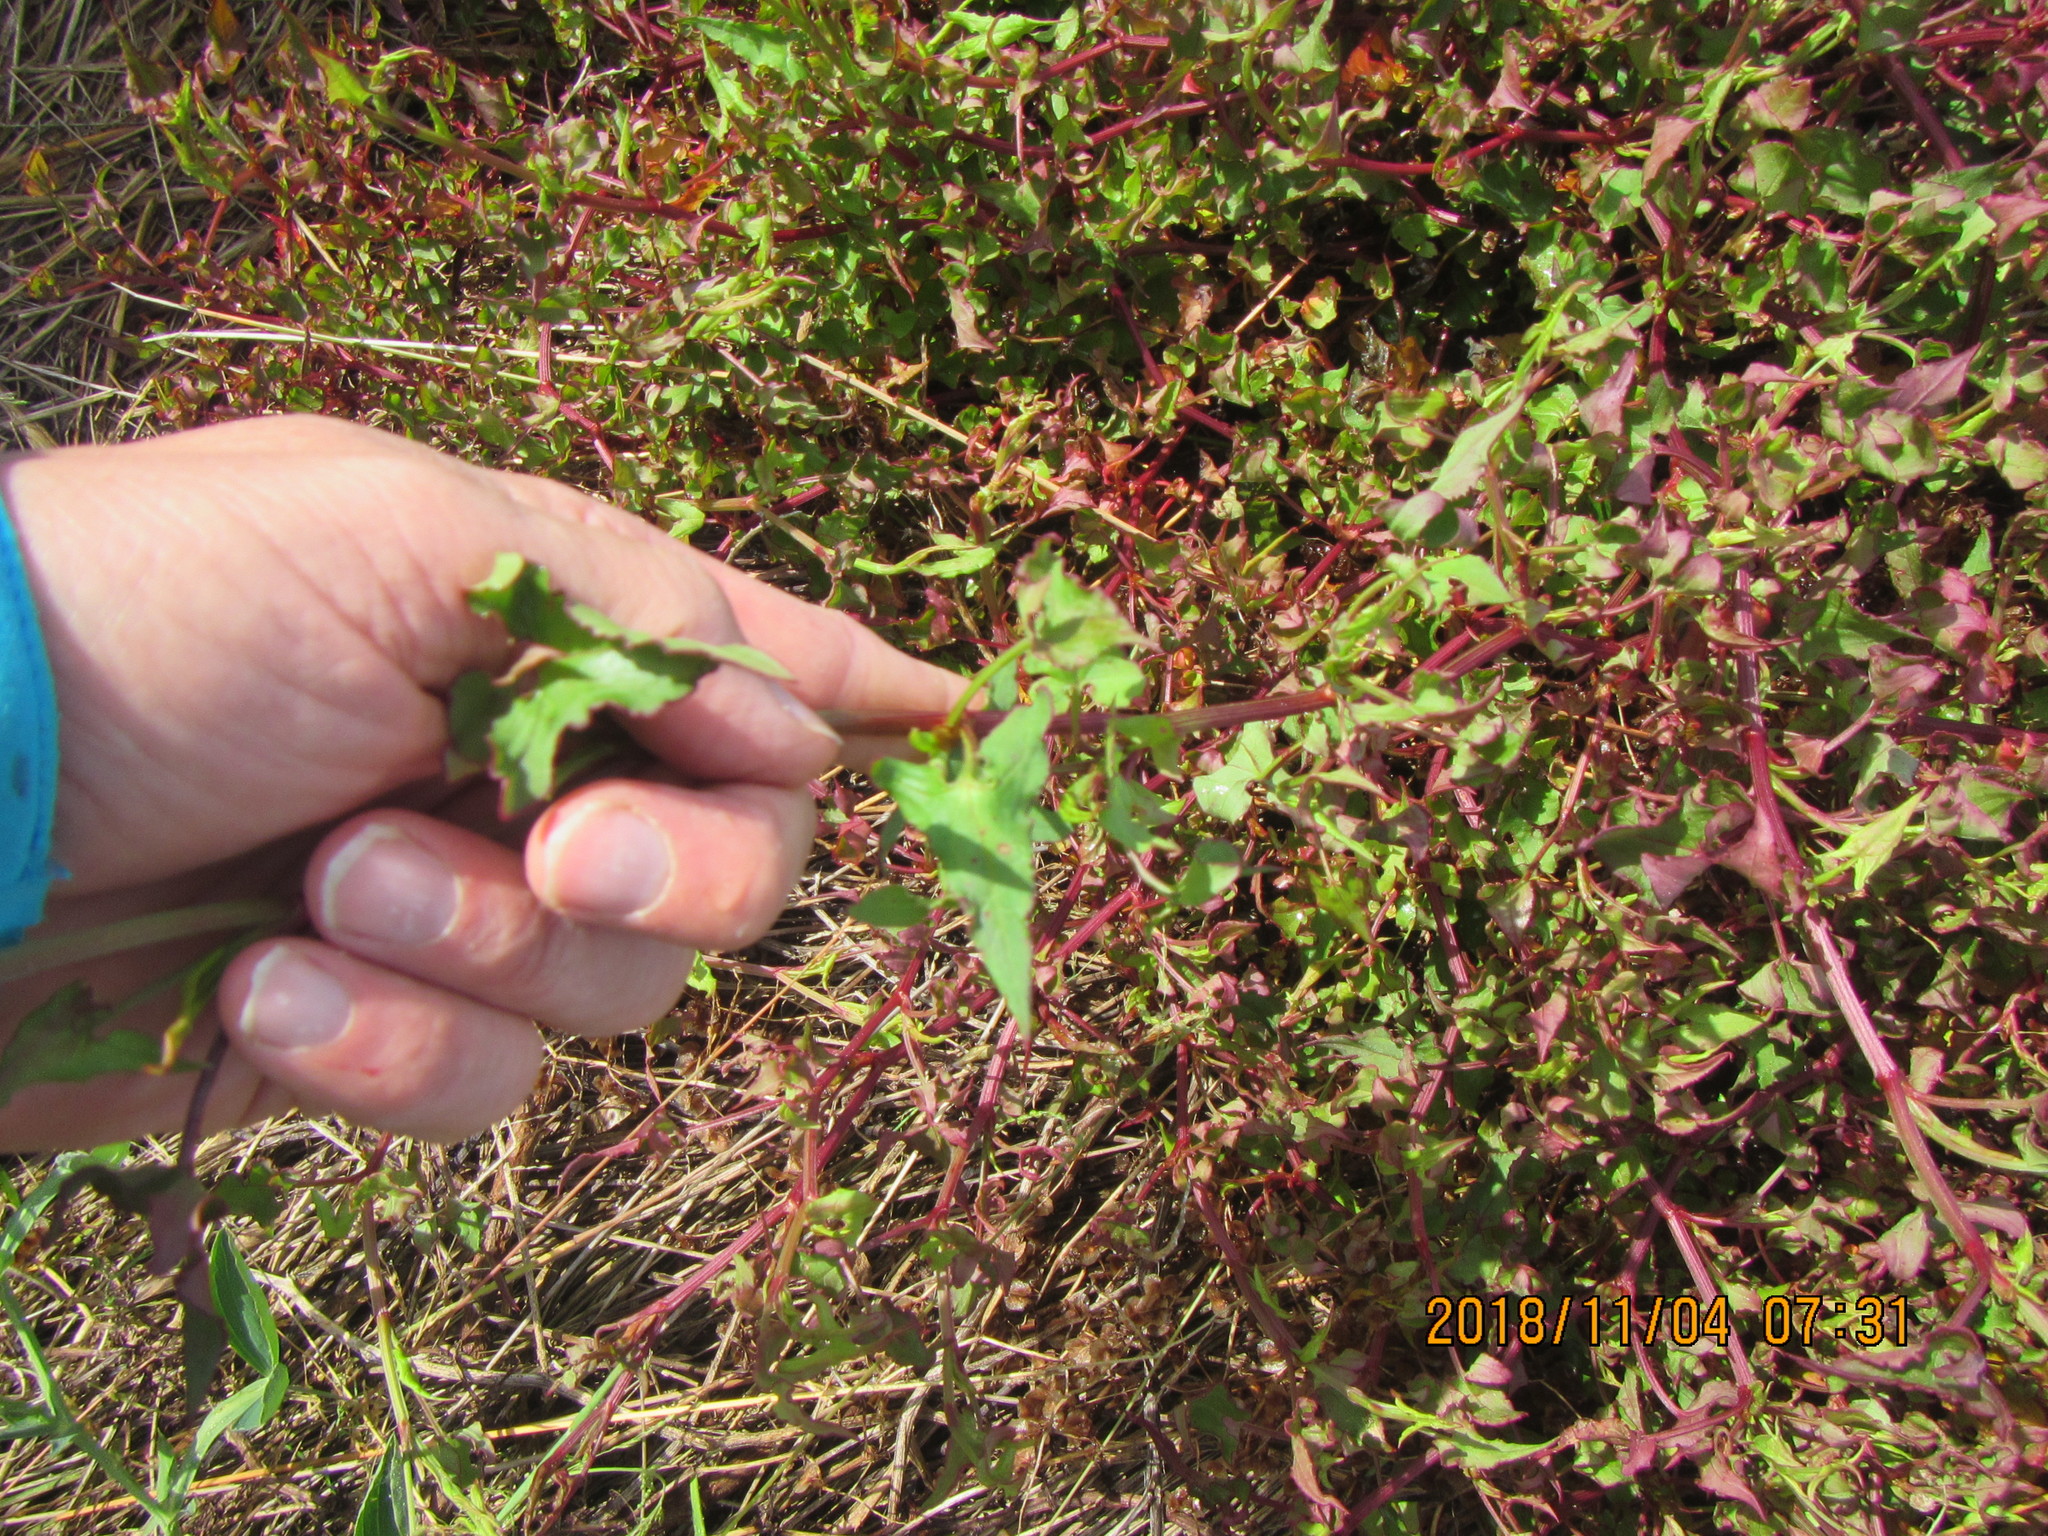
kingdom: Plantae
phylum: Tracheophyta
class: Magnoliopsida
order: Caryophyllales
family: Polygonaceae
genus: Rumex
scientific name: Rumex sagittatus
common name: Climbing dock
